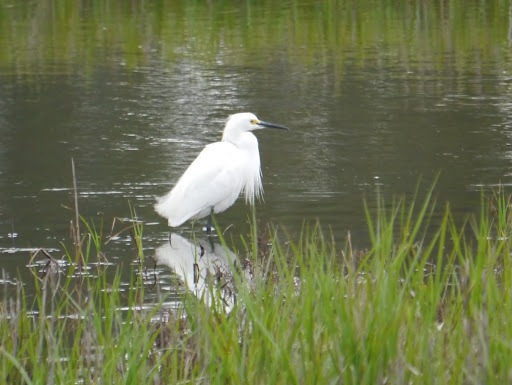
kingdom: Animalia
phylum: Chordata
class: Aves
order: Pelecaniformes
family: Ardeidae
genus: Egretta
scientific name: Egretta thula
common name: Snowy egret
